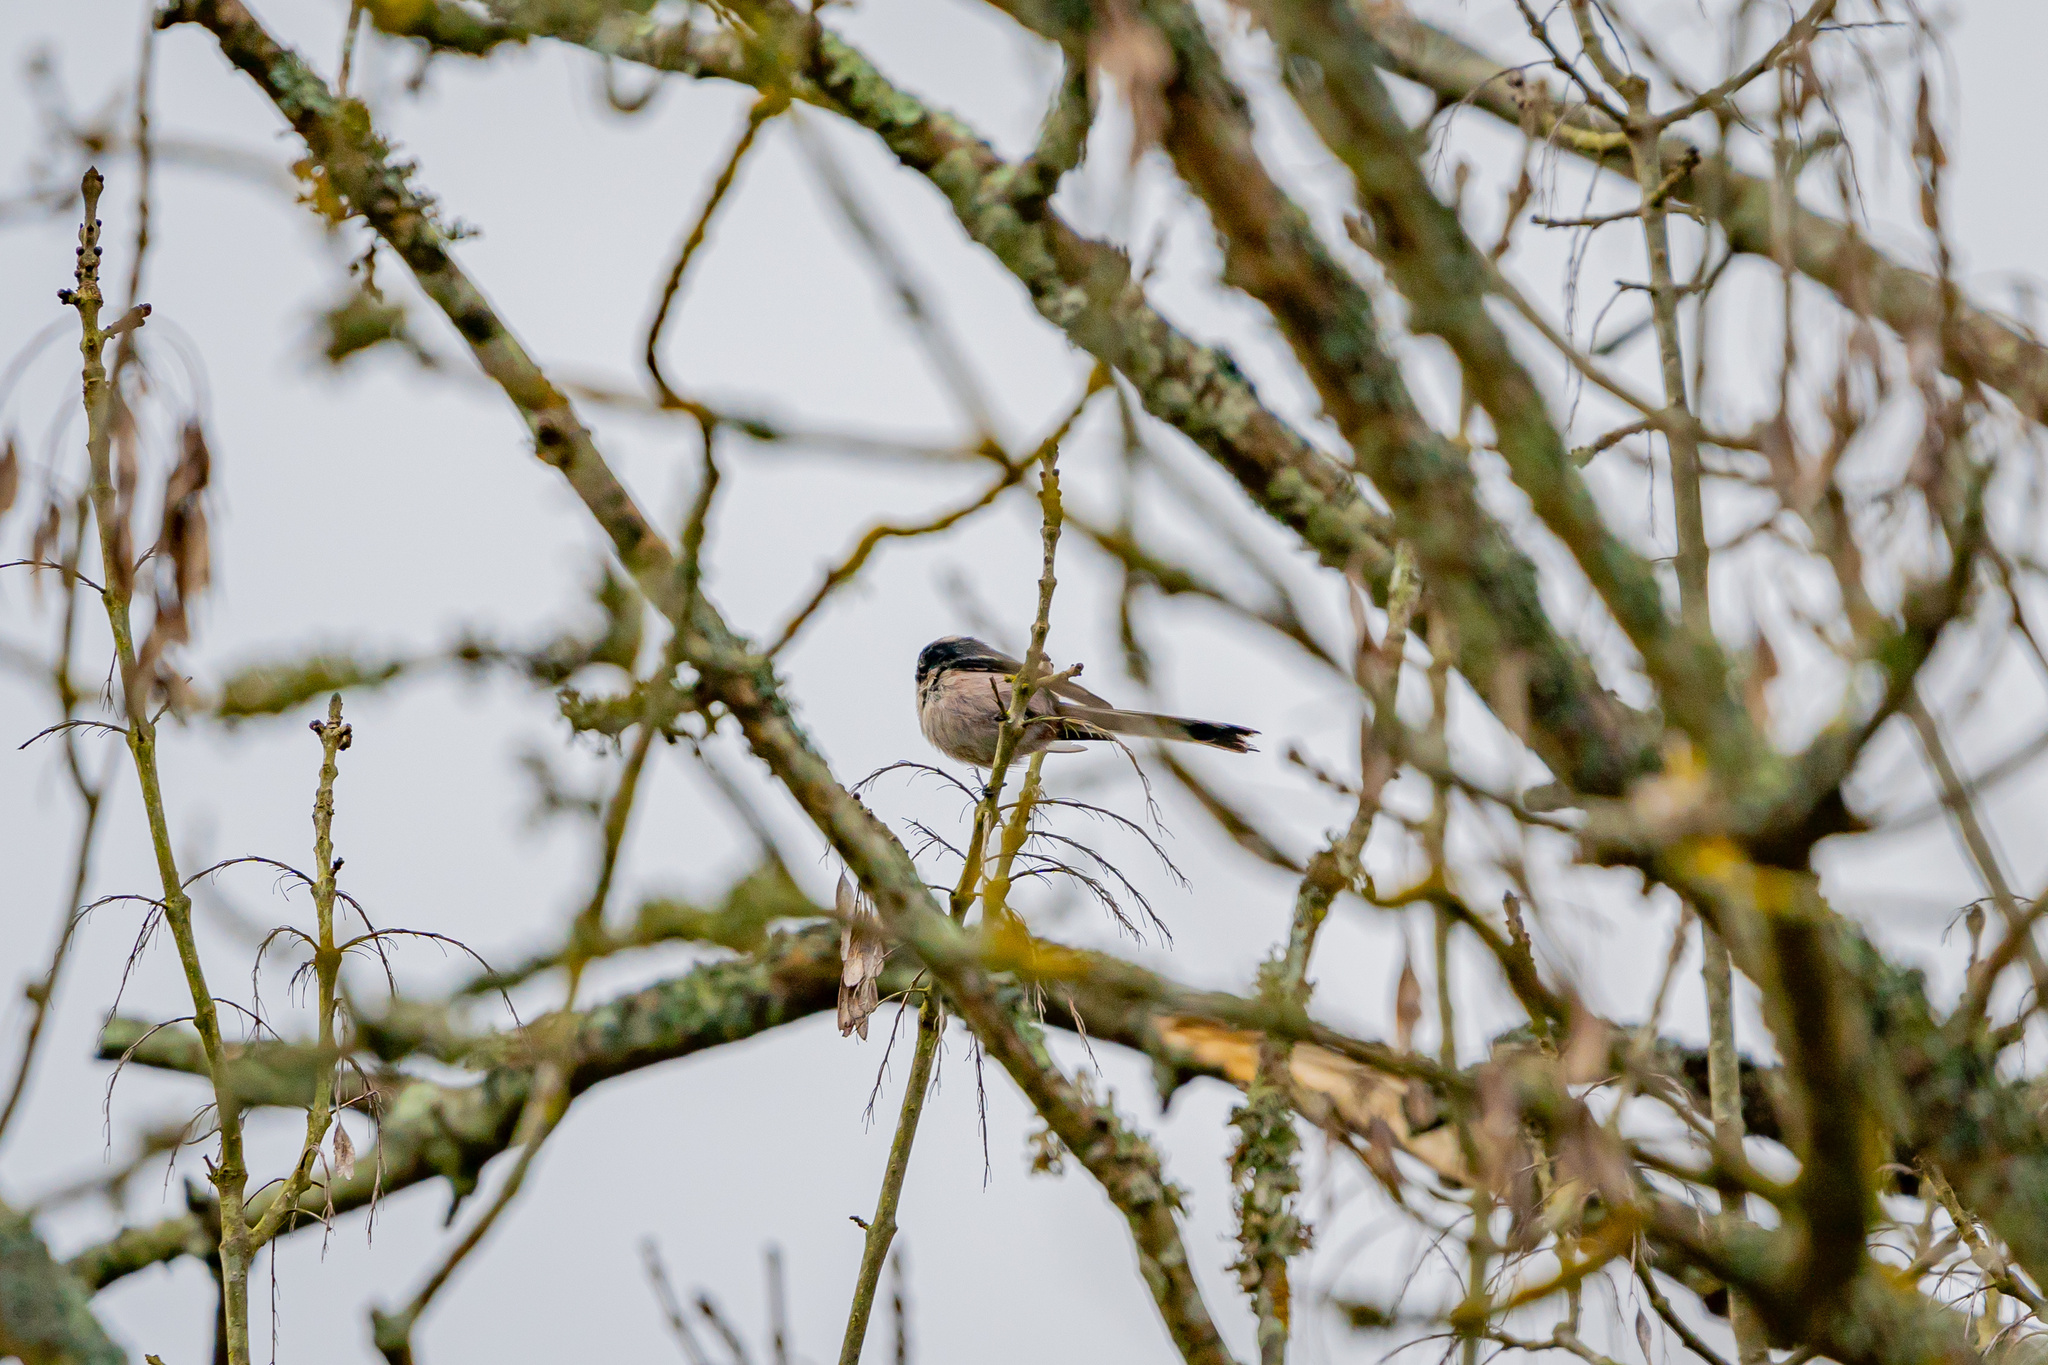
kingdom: Animalia
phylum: Chordata
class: Aves
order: Passeriformes
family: Aegithalidae
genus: Aegithalos
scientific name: Aegithalos caudatus
